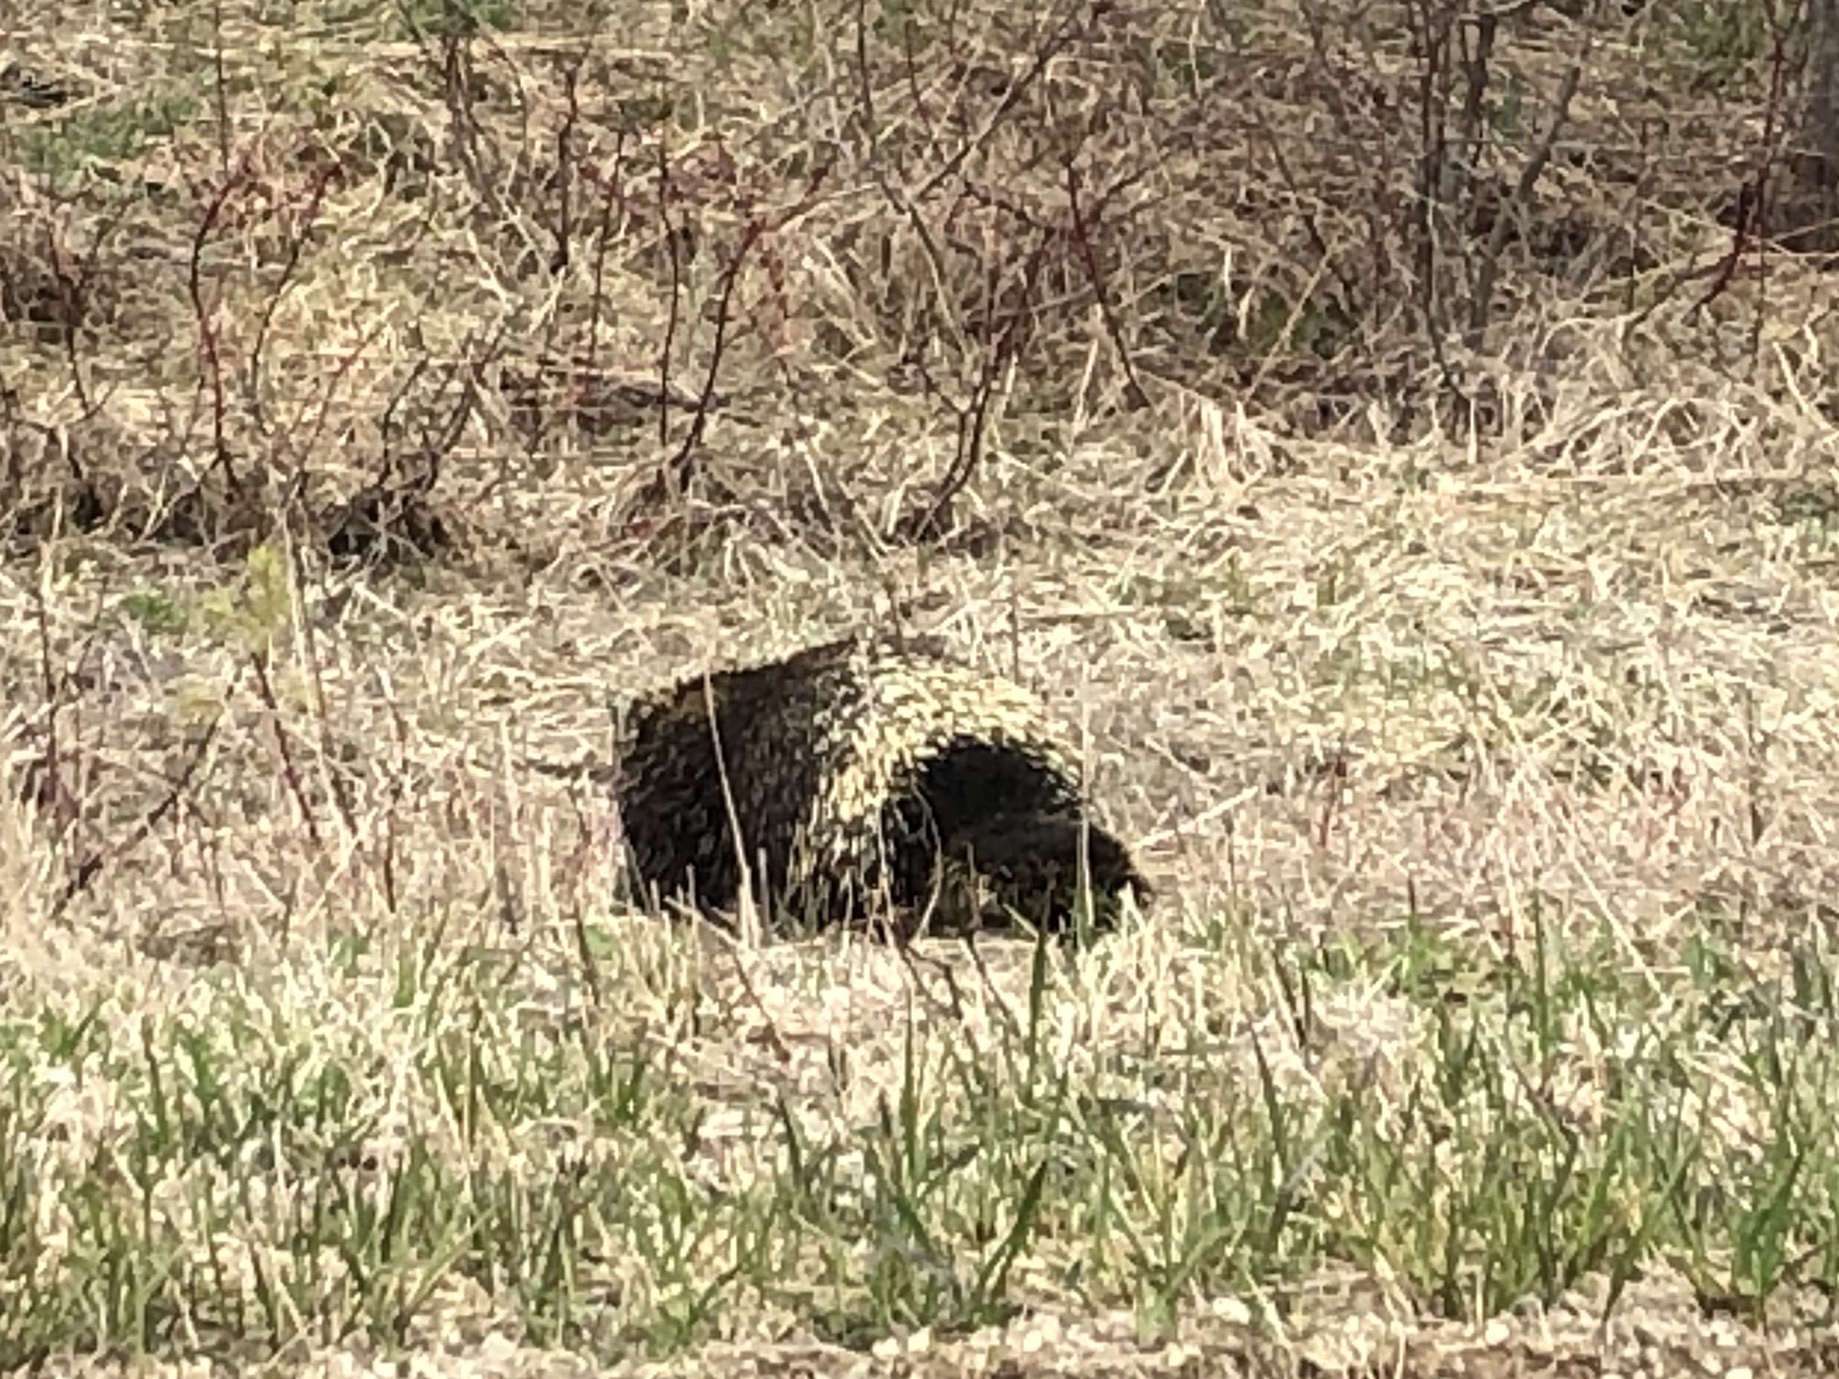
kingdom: Animalia
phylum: Chordata
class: Mammalia
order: Rodentia
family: Erethizontidae
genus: Erethizon
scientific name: Erethizon dorsatus
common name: North american porcupine
